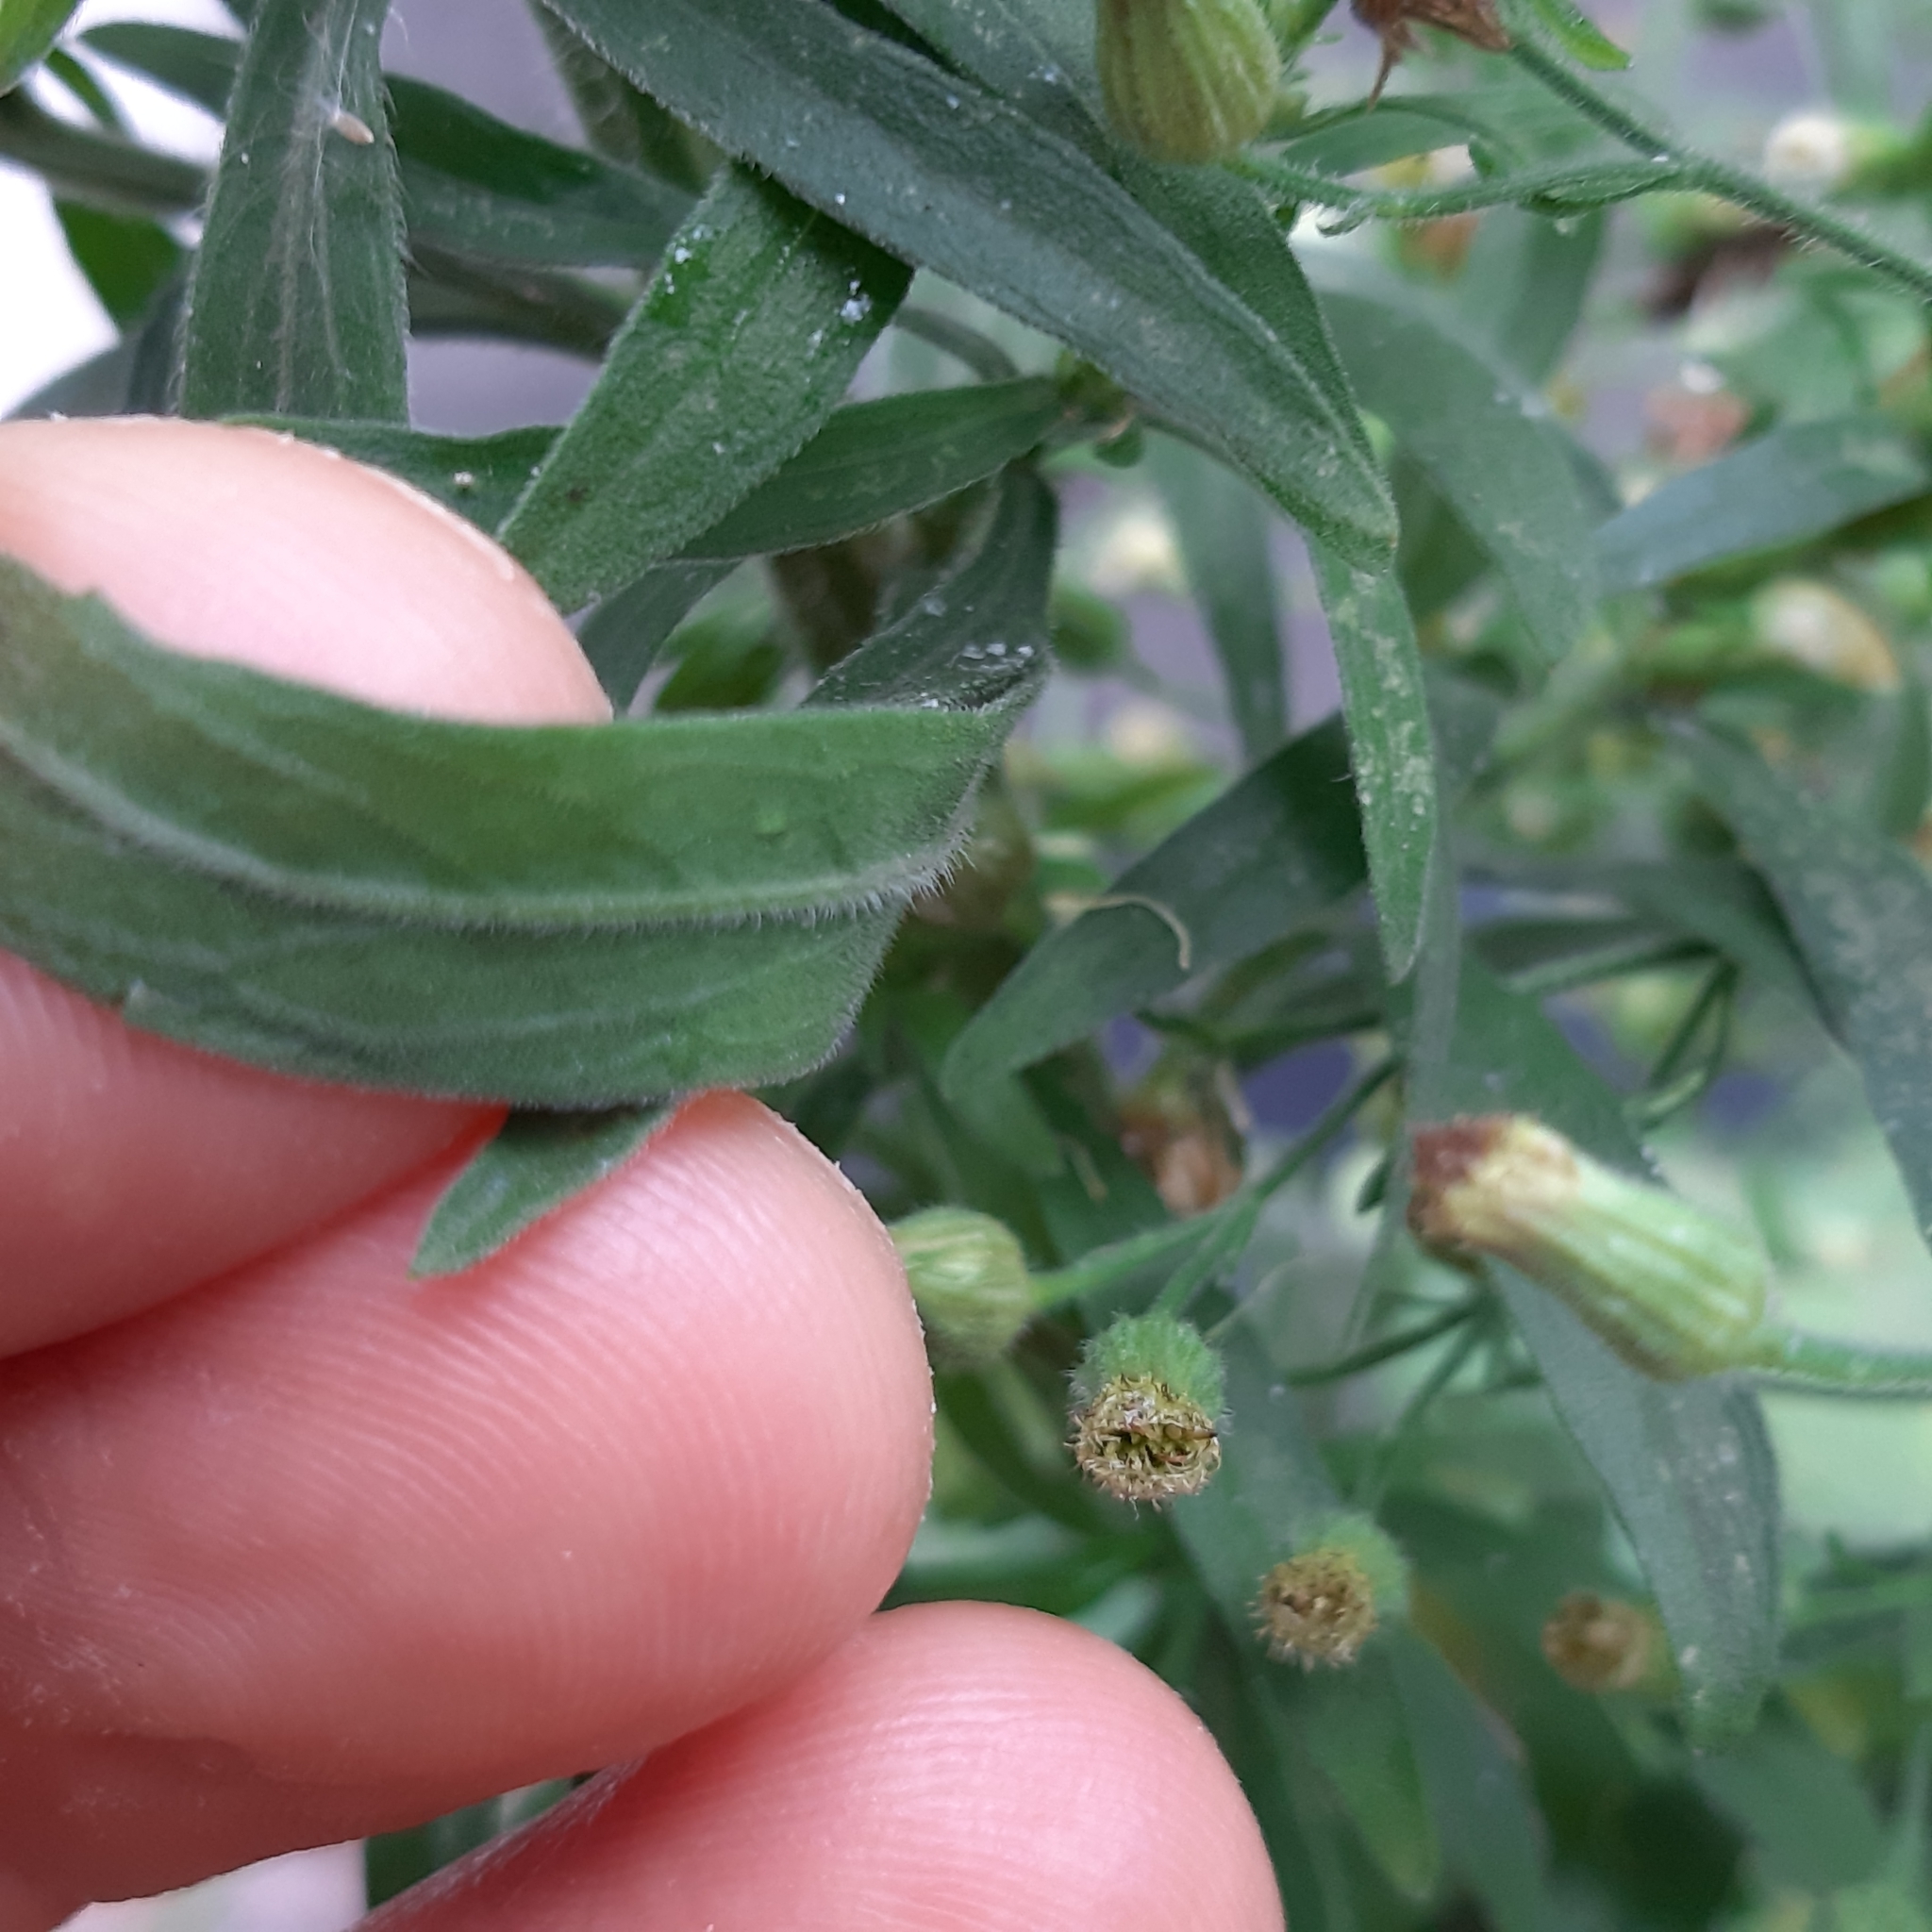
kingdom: Plantae
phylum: Tracheophyta
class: Magnoliopsida
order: Asterales
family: Asteraceae
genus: Erigeron
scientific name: Erigeron sumatrensis
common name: Daisy
